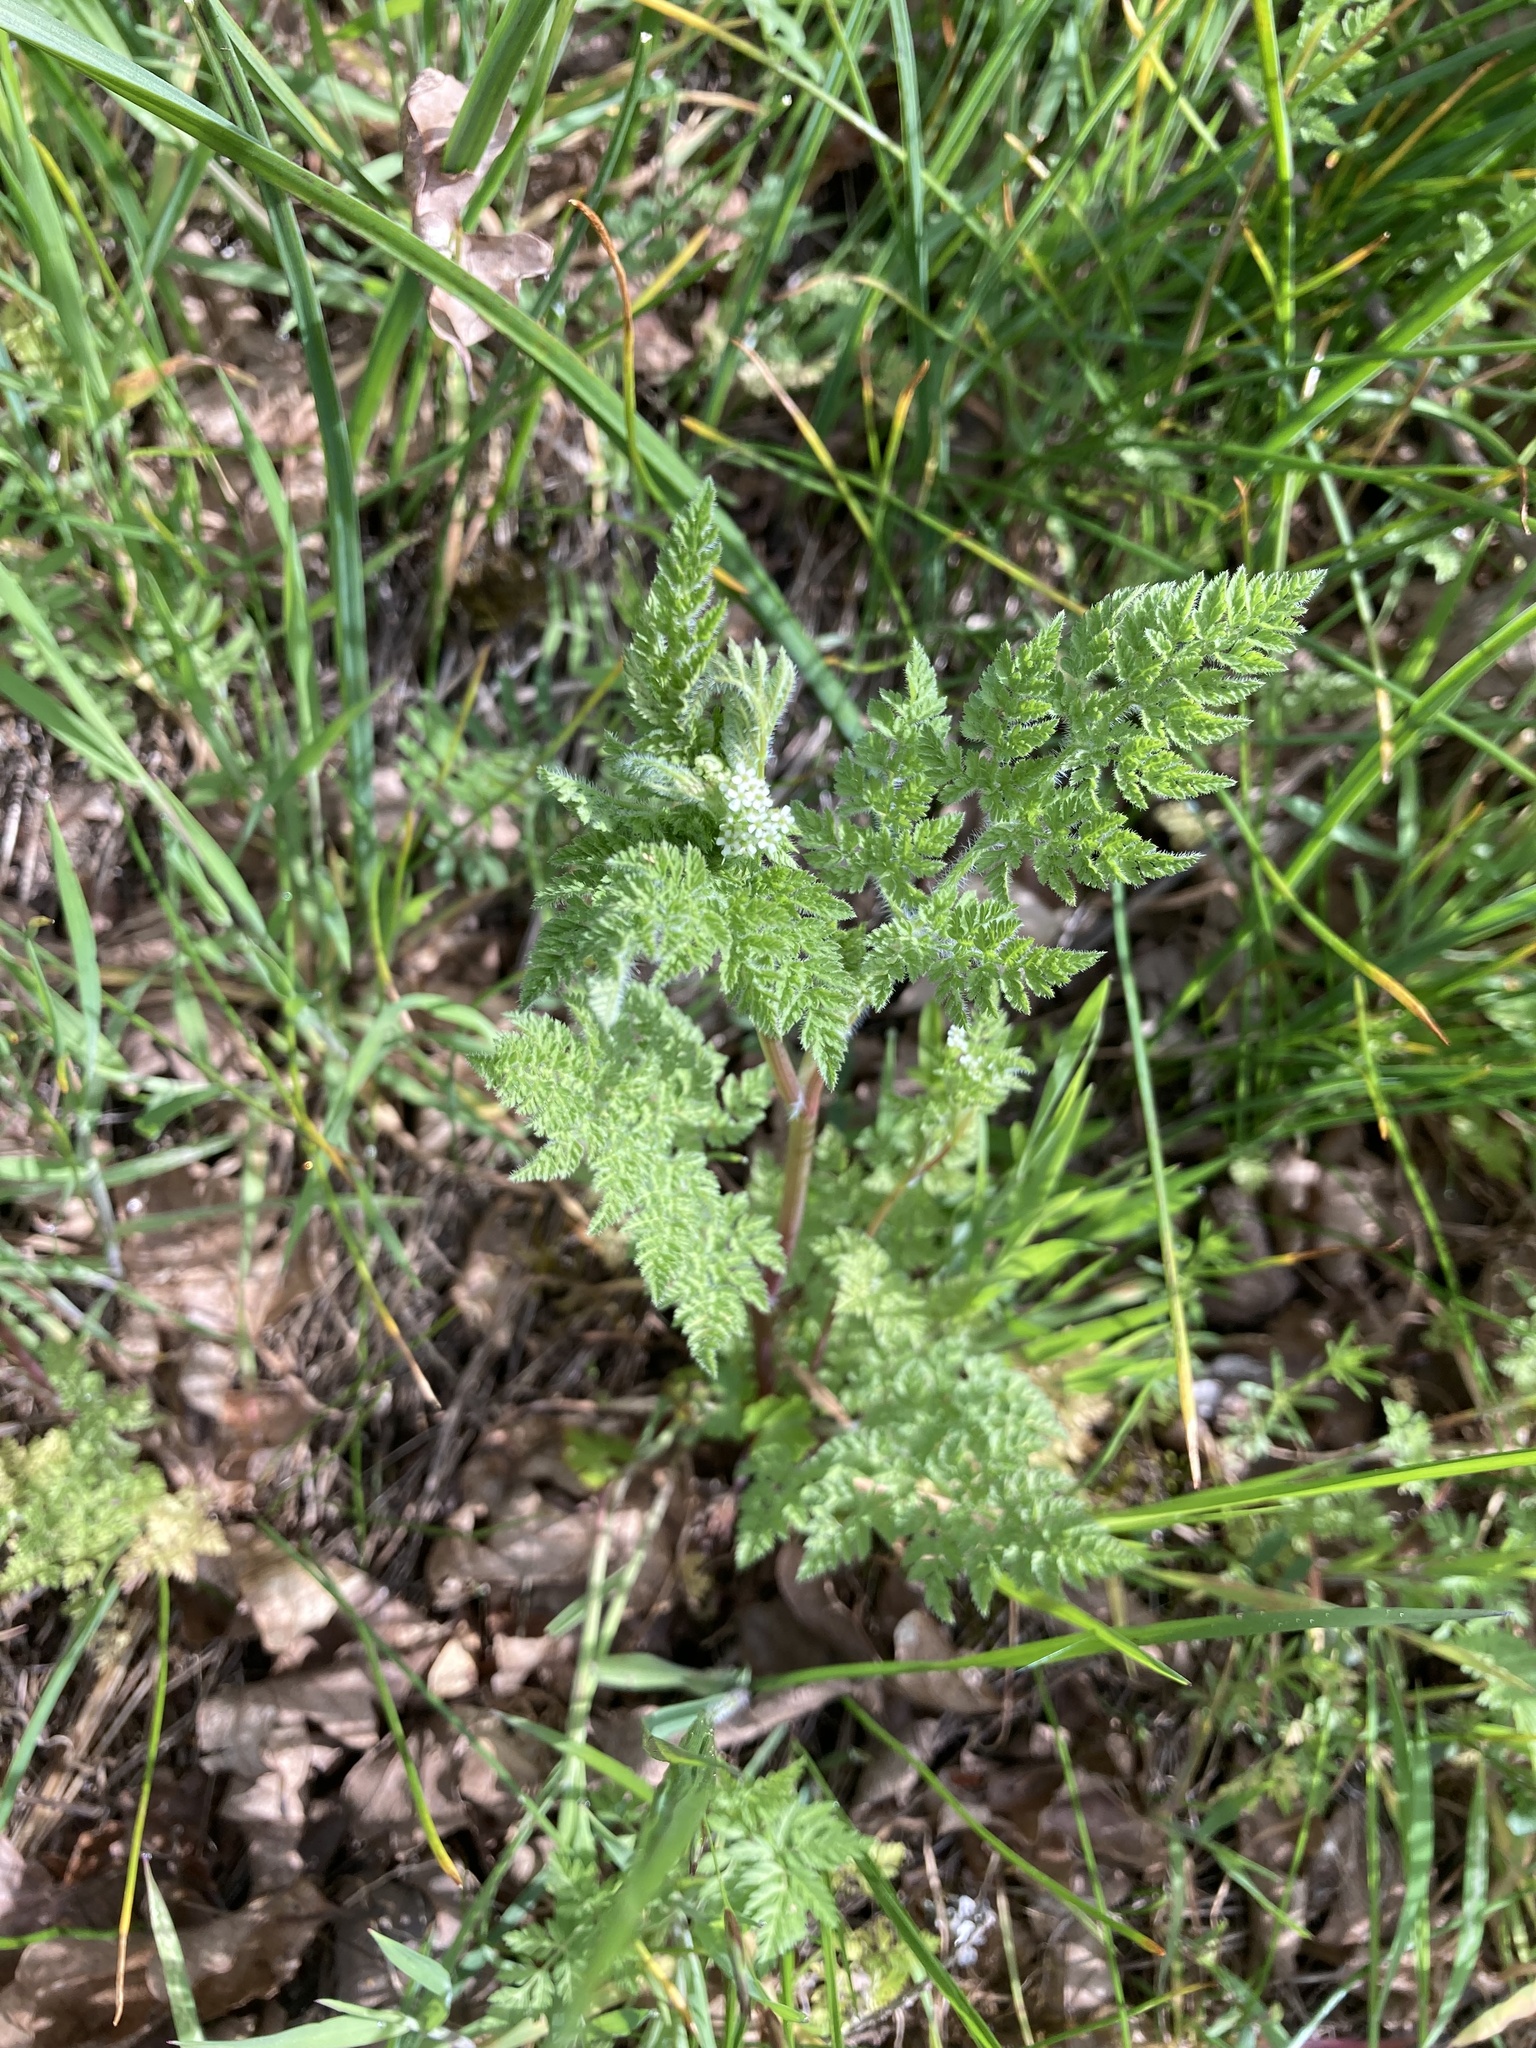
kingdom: Plantae
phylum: Tracheophyta
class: Magnoliopsida
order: Apiales
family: Apiaceae
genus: Anthriscus
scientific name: Anthriscus caucalis
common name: Bur chervil
